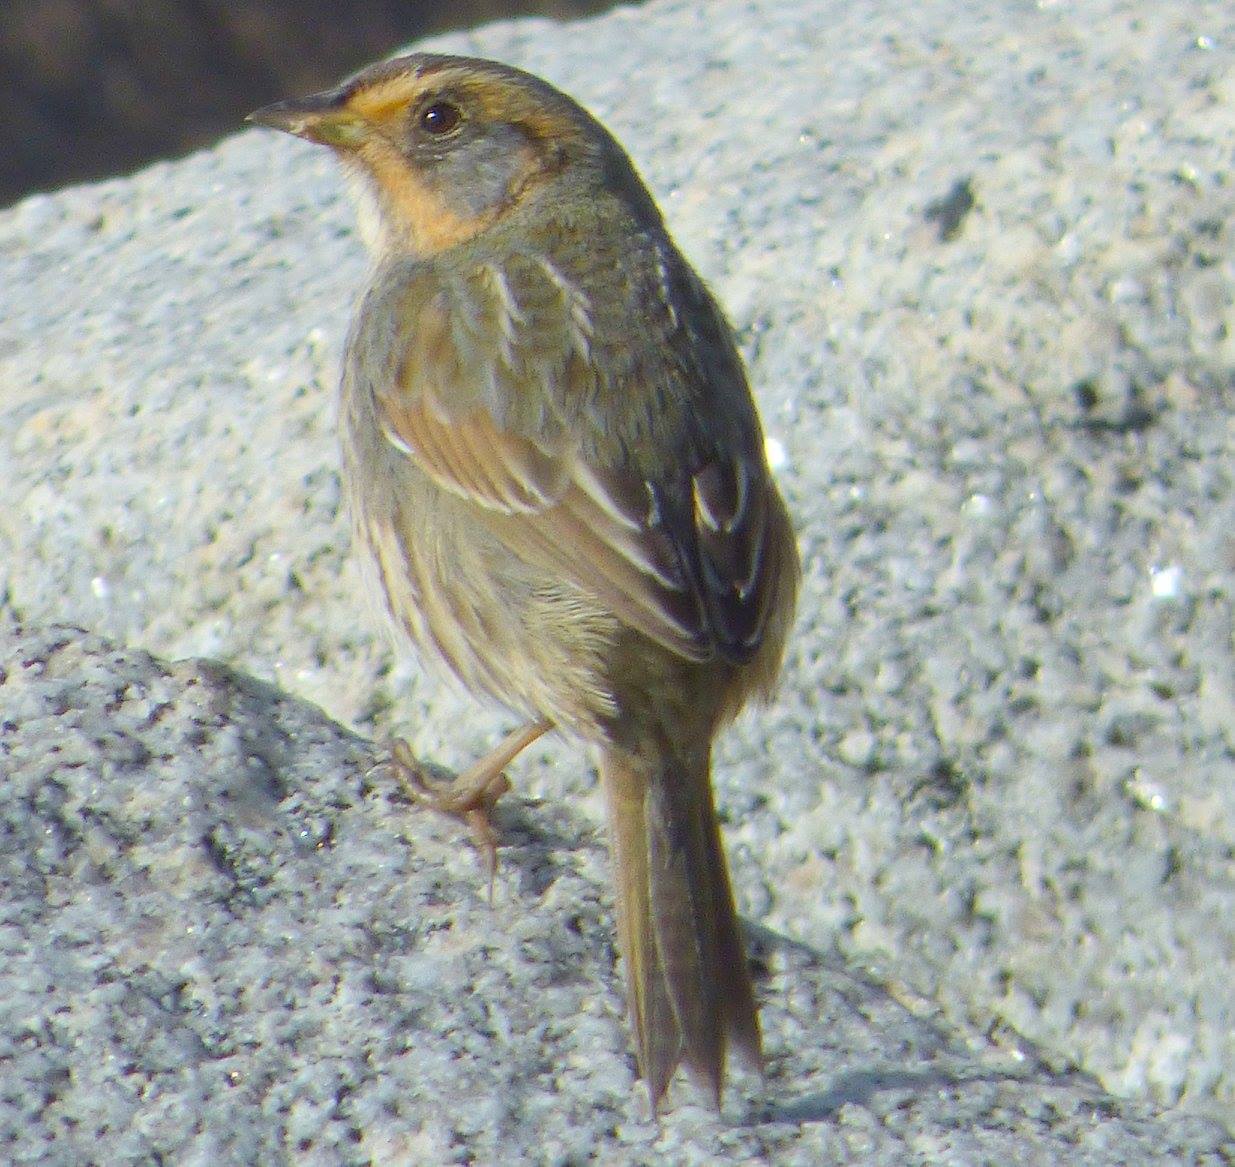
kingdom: Animalia
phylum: Chordata
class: Aves
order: Passeriformes
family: Passerellidae
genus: Ammospiza
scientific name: Ammospiza caudacuta
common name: Saltmarsh sparrow
